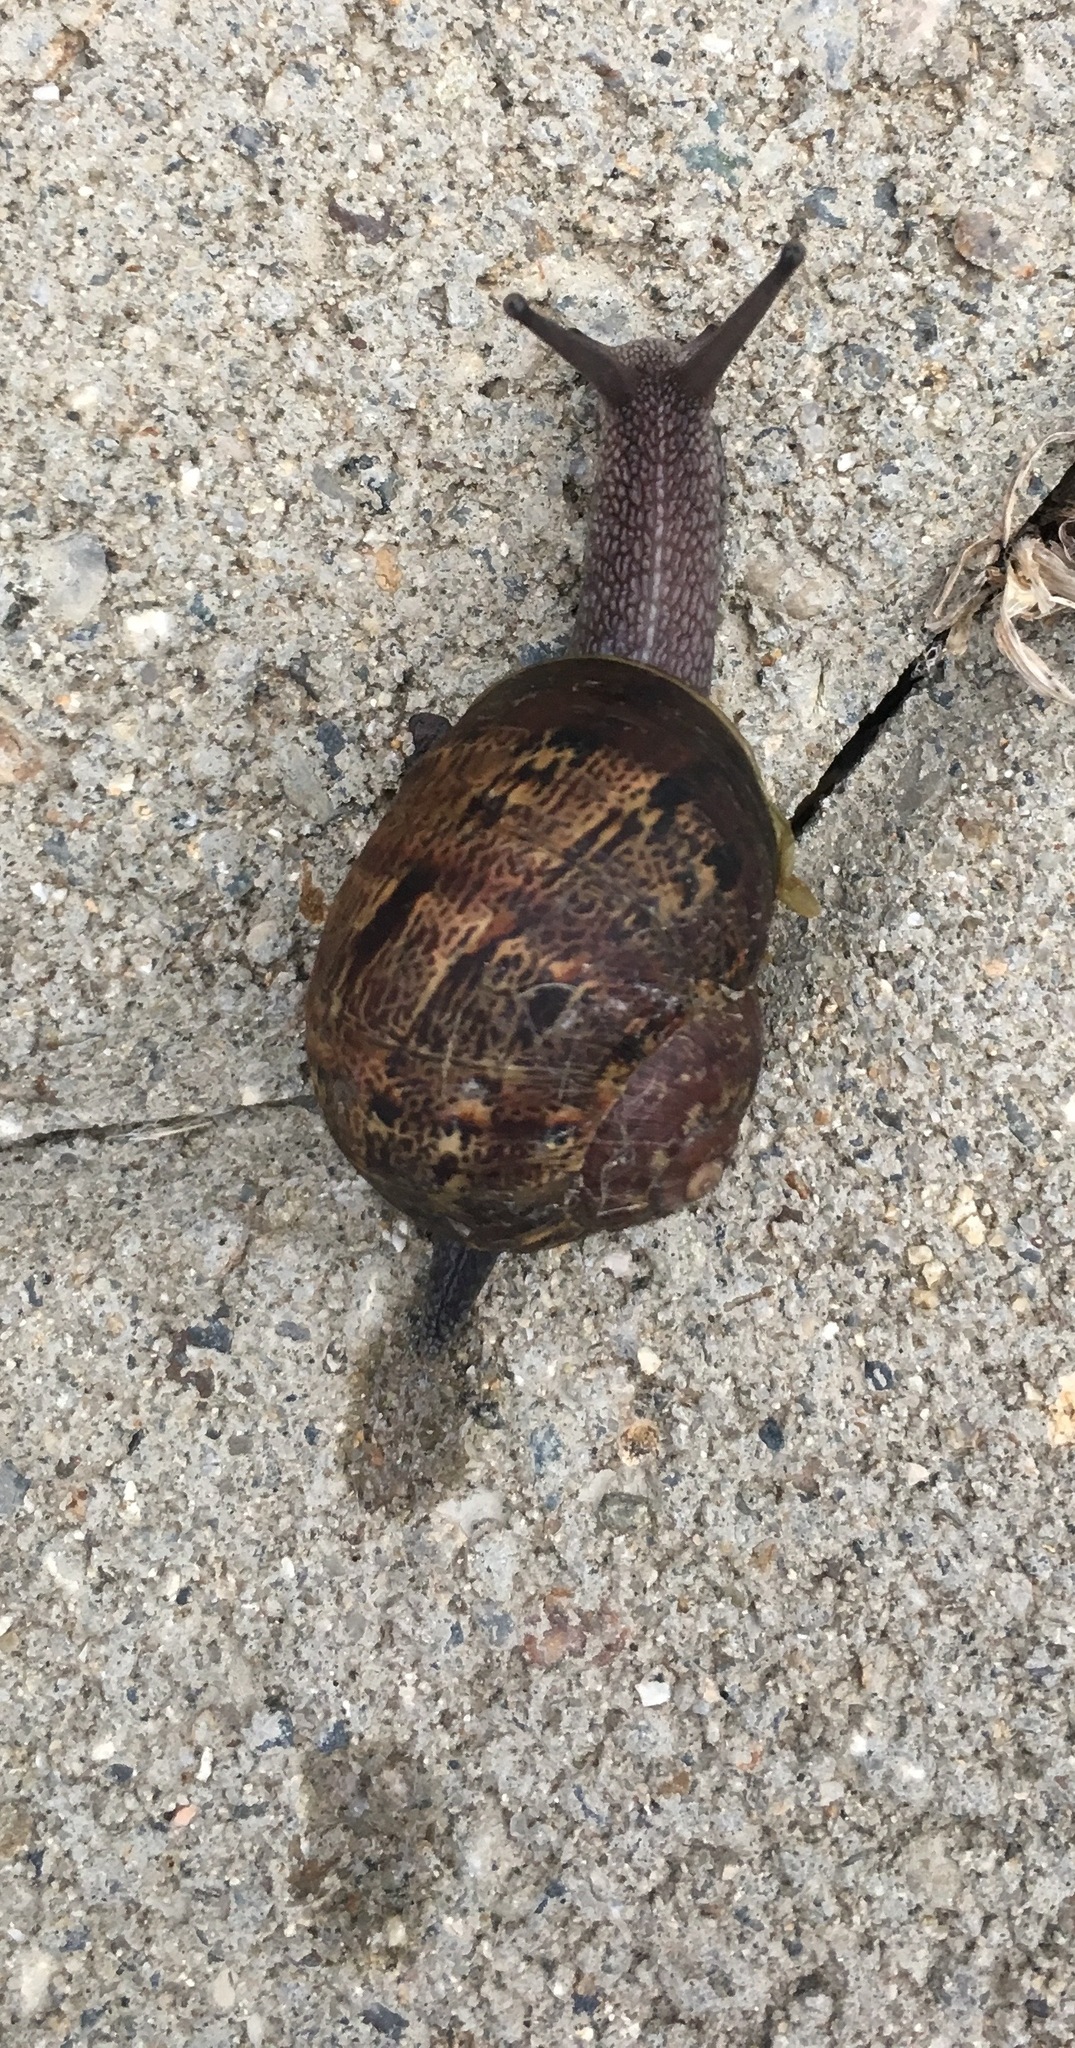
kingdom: Animalia
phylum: Mollusca
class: Gastropoda
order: Stylommatophora
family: Helicidae
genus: Cornu
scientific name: Cornu aspersum
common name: Brown garden snail
